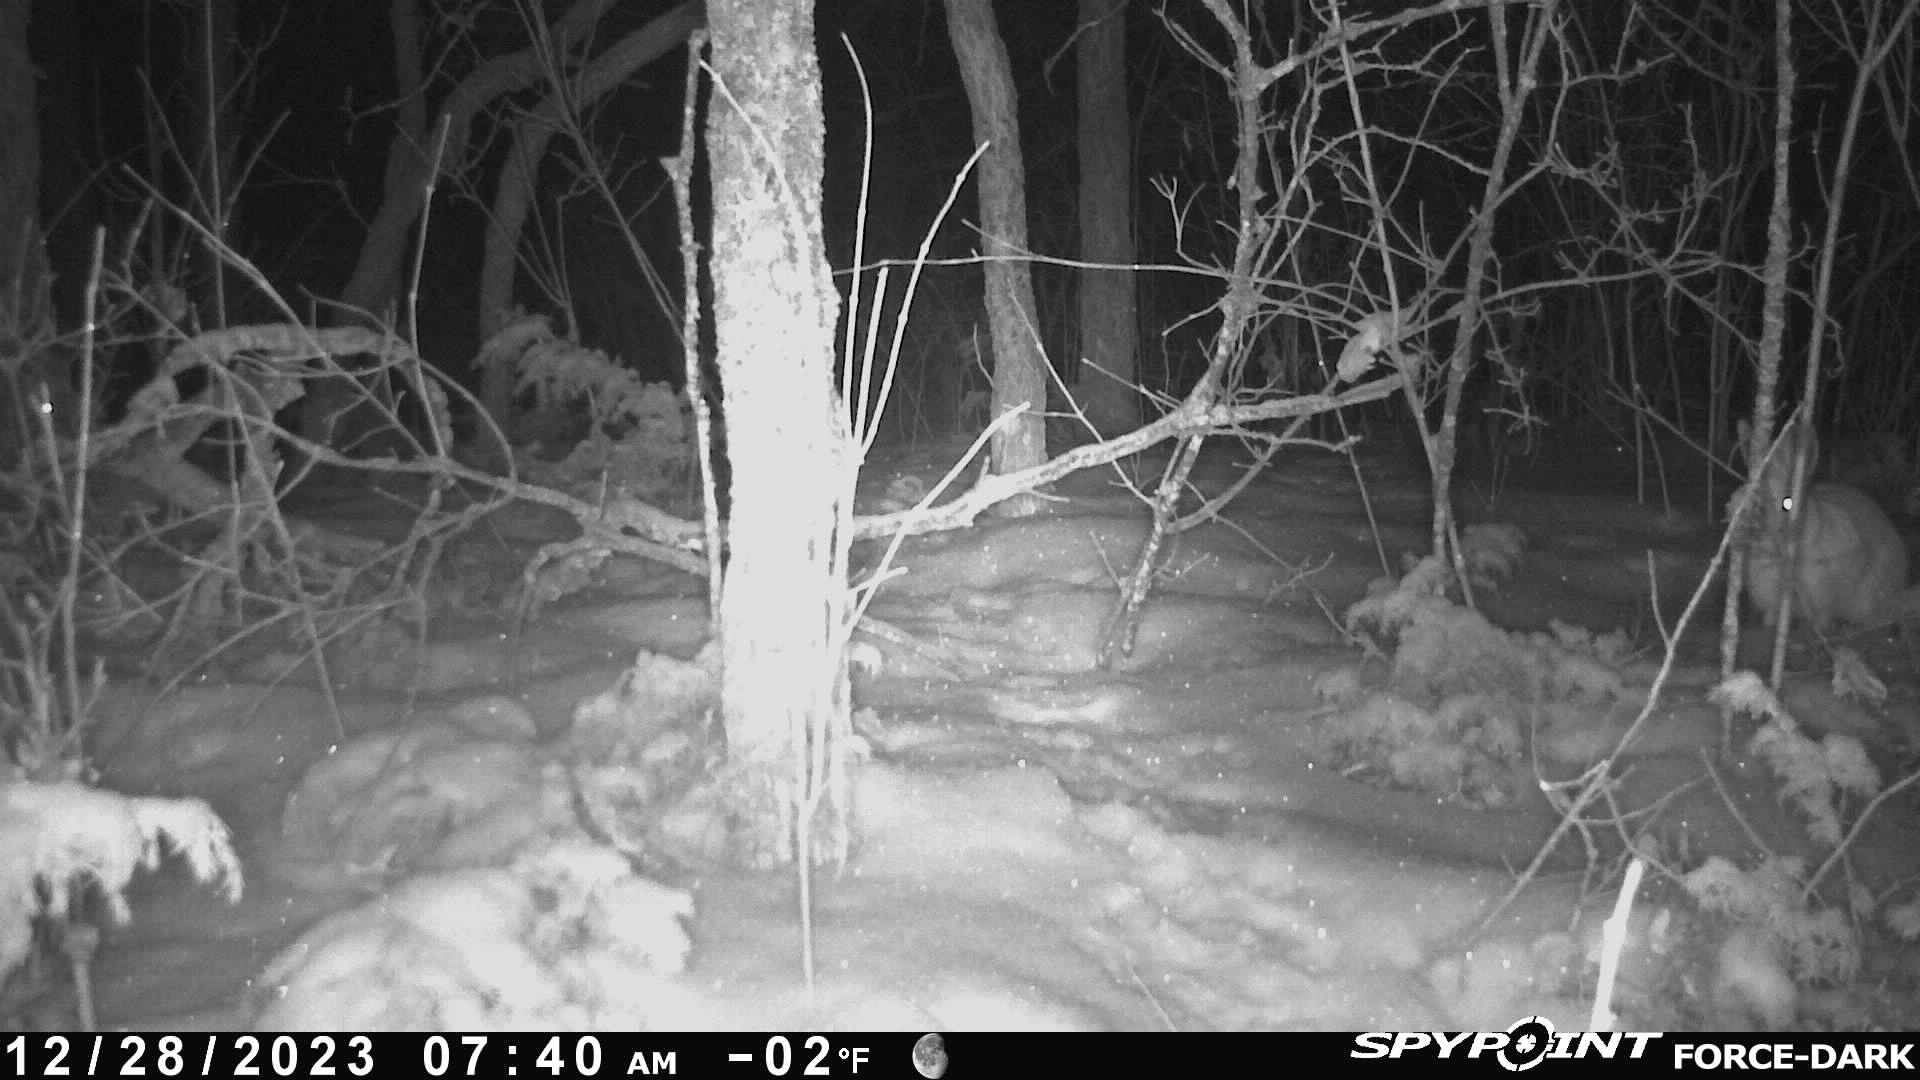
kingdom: Animalia
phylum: Chordata
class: Mammalia
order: Lagomorpha
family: Leporidae
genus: Lepus
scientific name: Lepus americanus
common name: Snowshoe hare
